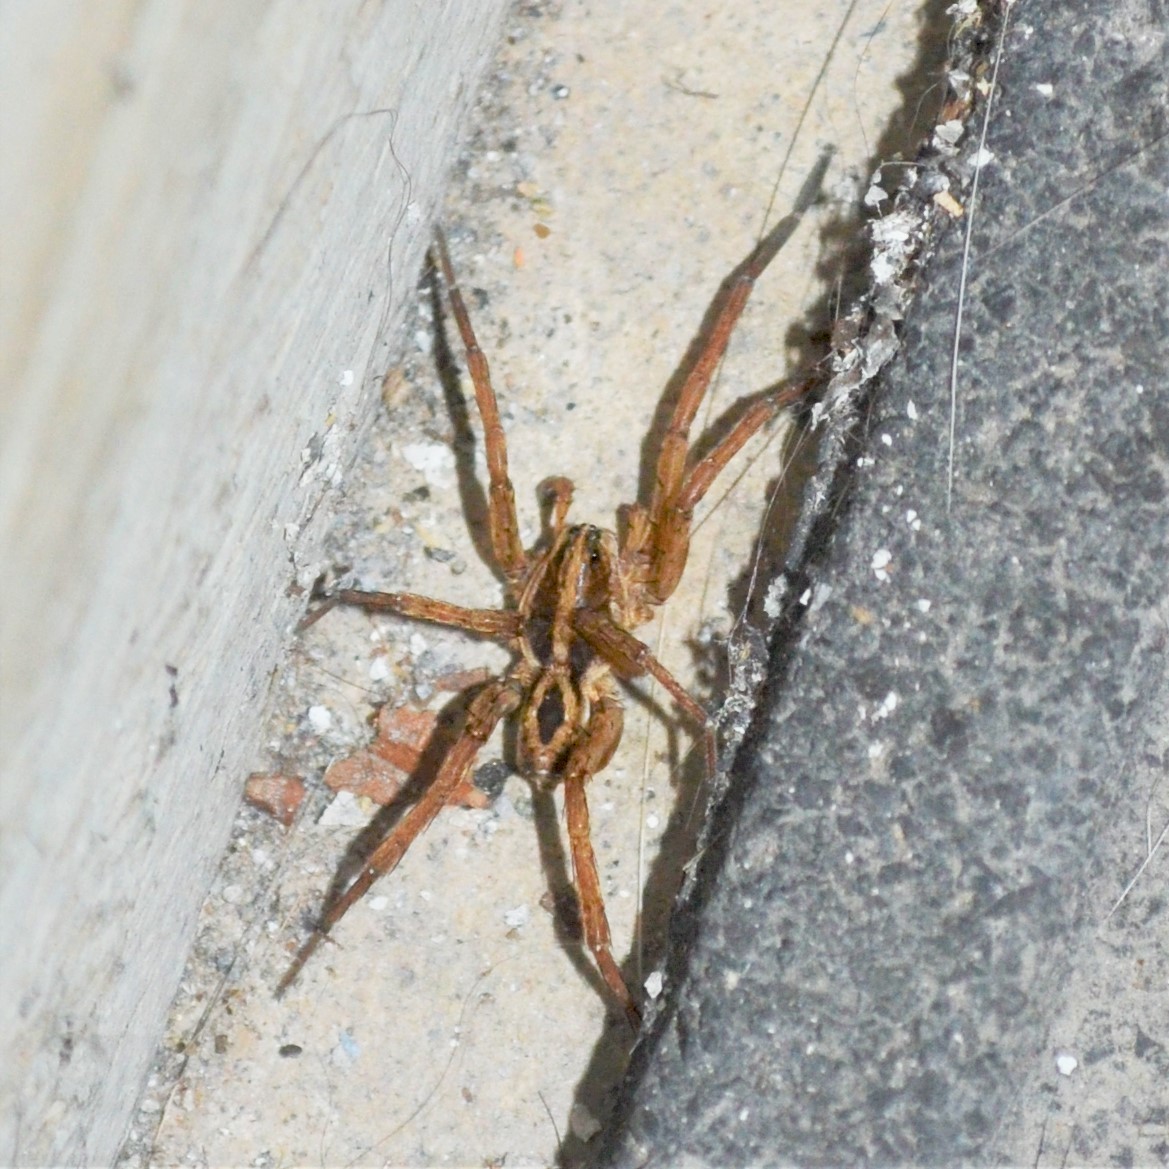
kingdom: Animalia
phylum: Arthropoda
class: Arachnida
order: Araneae
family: Lycosidae
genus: Tigrosa
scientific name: Tigrosa annexa
